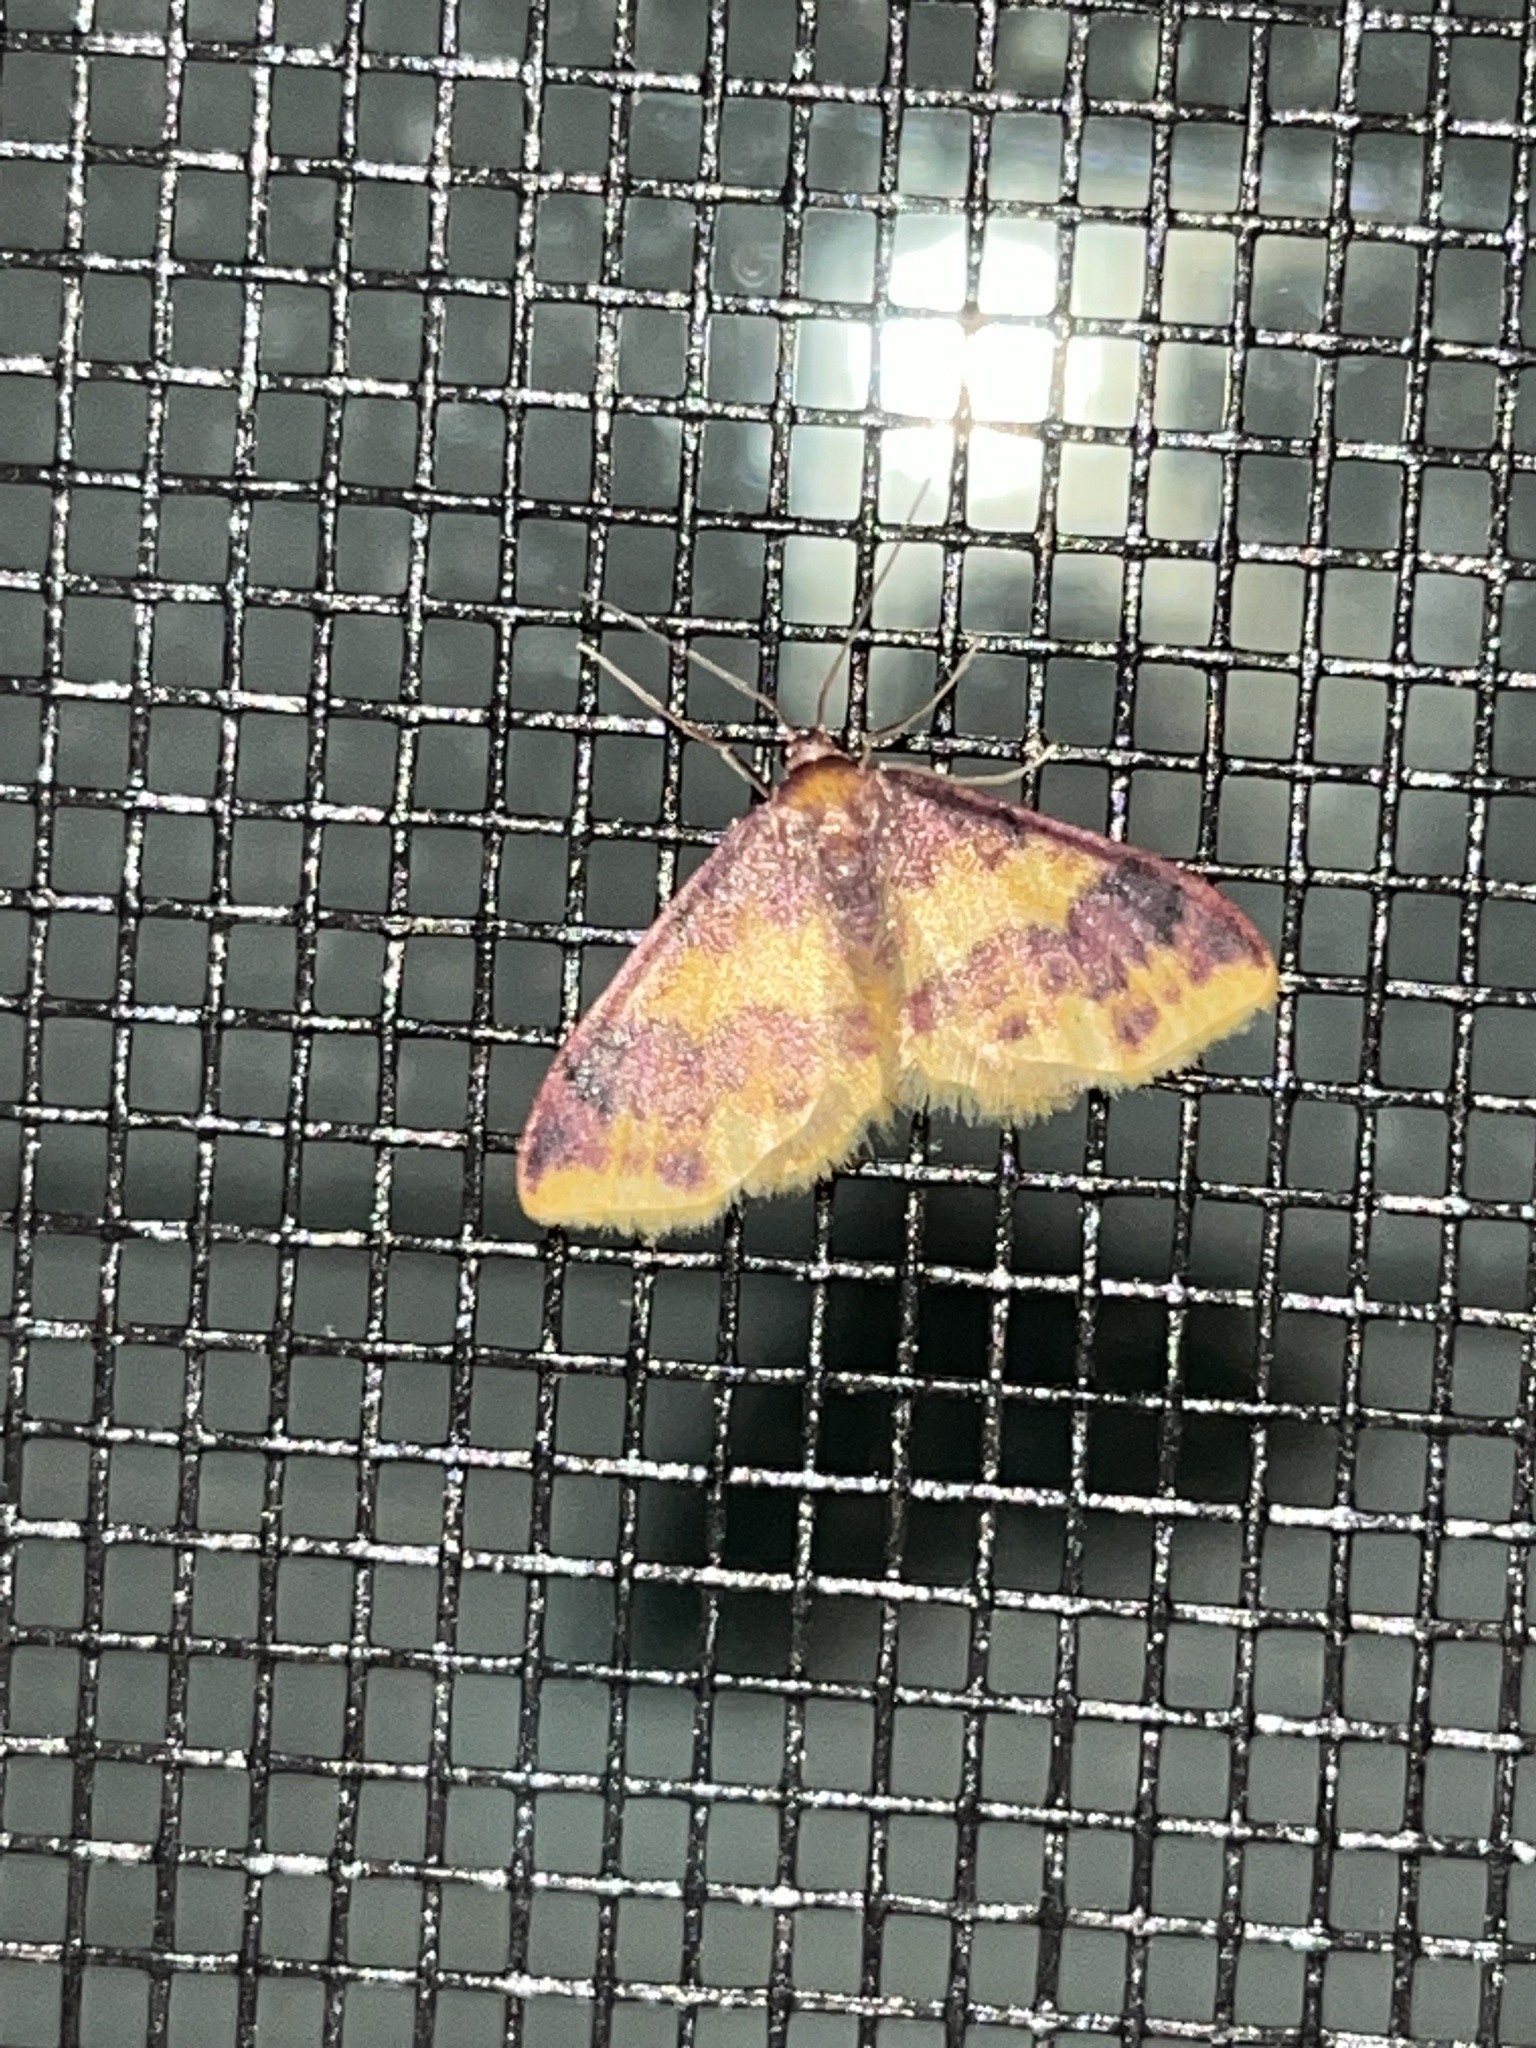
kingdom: Animalia
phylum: Arthropoda
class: Insecta
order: Lepidoptera
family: Geometridae
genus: Lophosis
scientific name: Lophosis labeculata
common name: Stained lophosis moth
